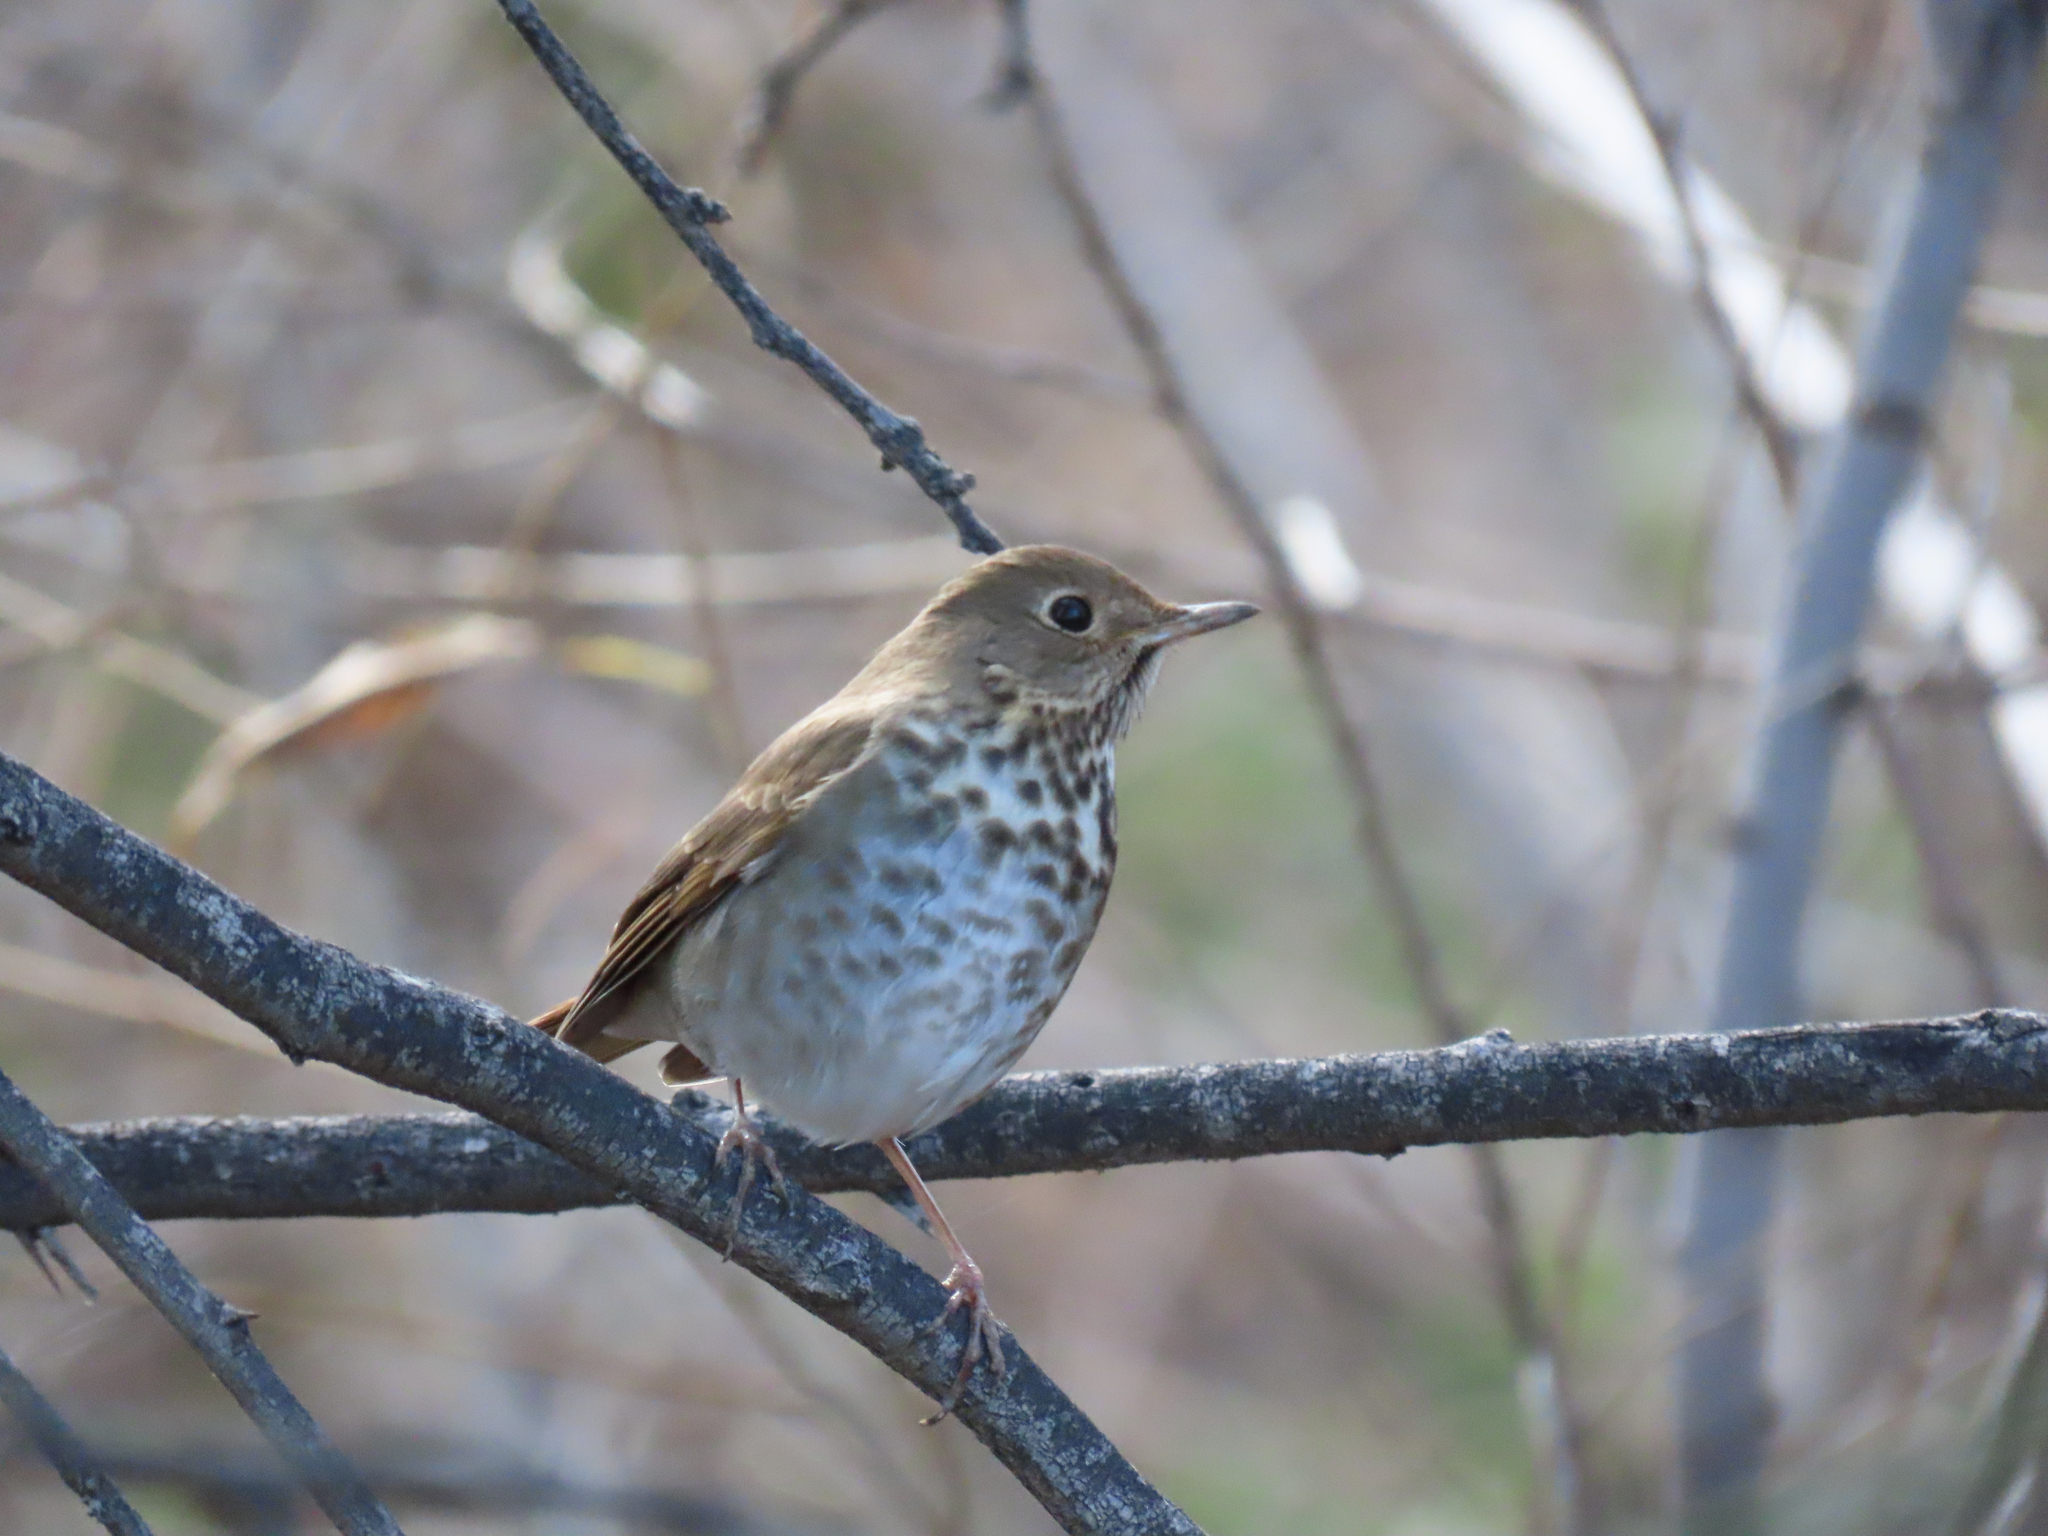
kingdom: Animalia
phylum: Chordata
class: Aves
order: Passeriformes
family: Turdidae
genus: Catharus
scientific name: Catharus guttatus
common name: Hermit thrush
